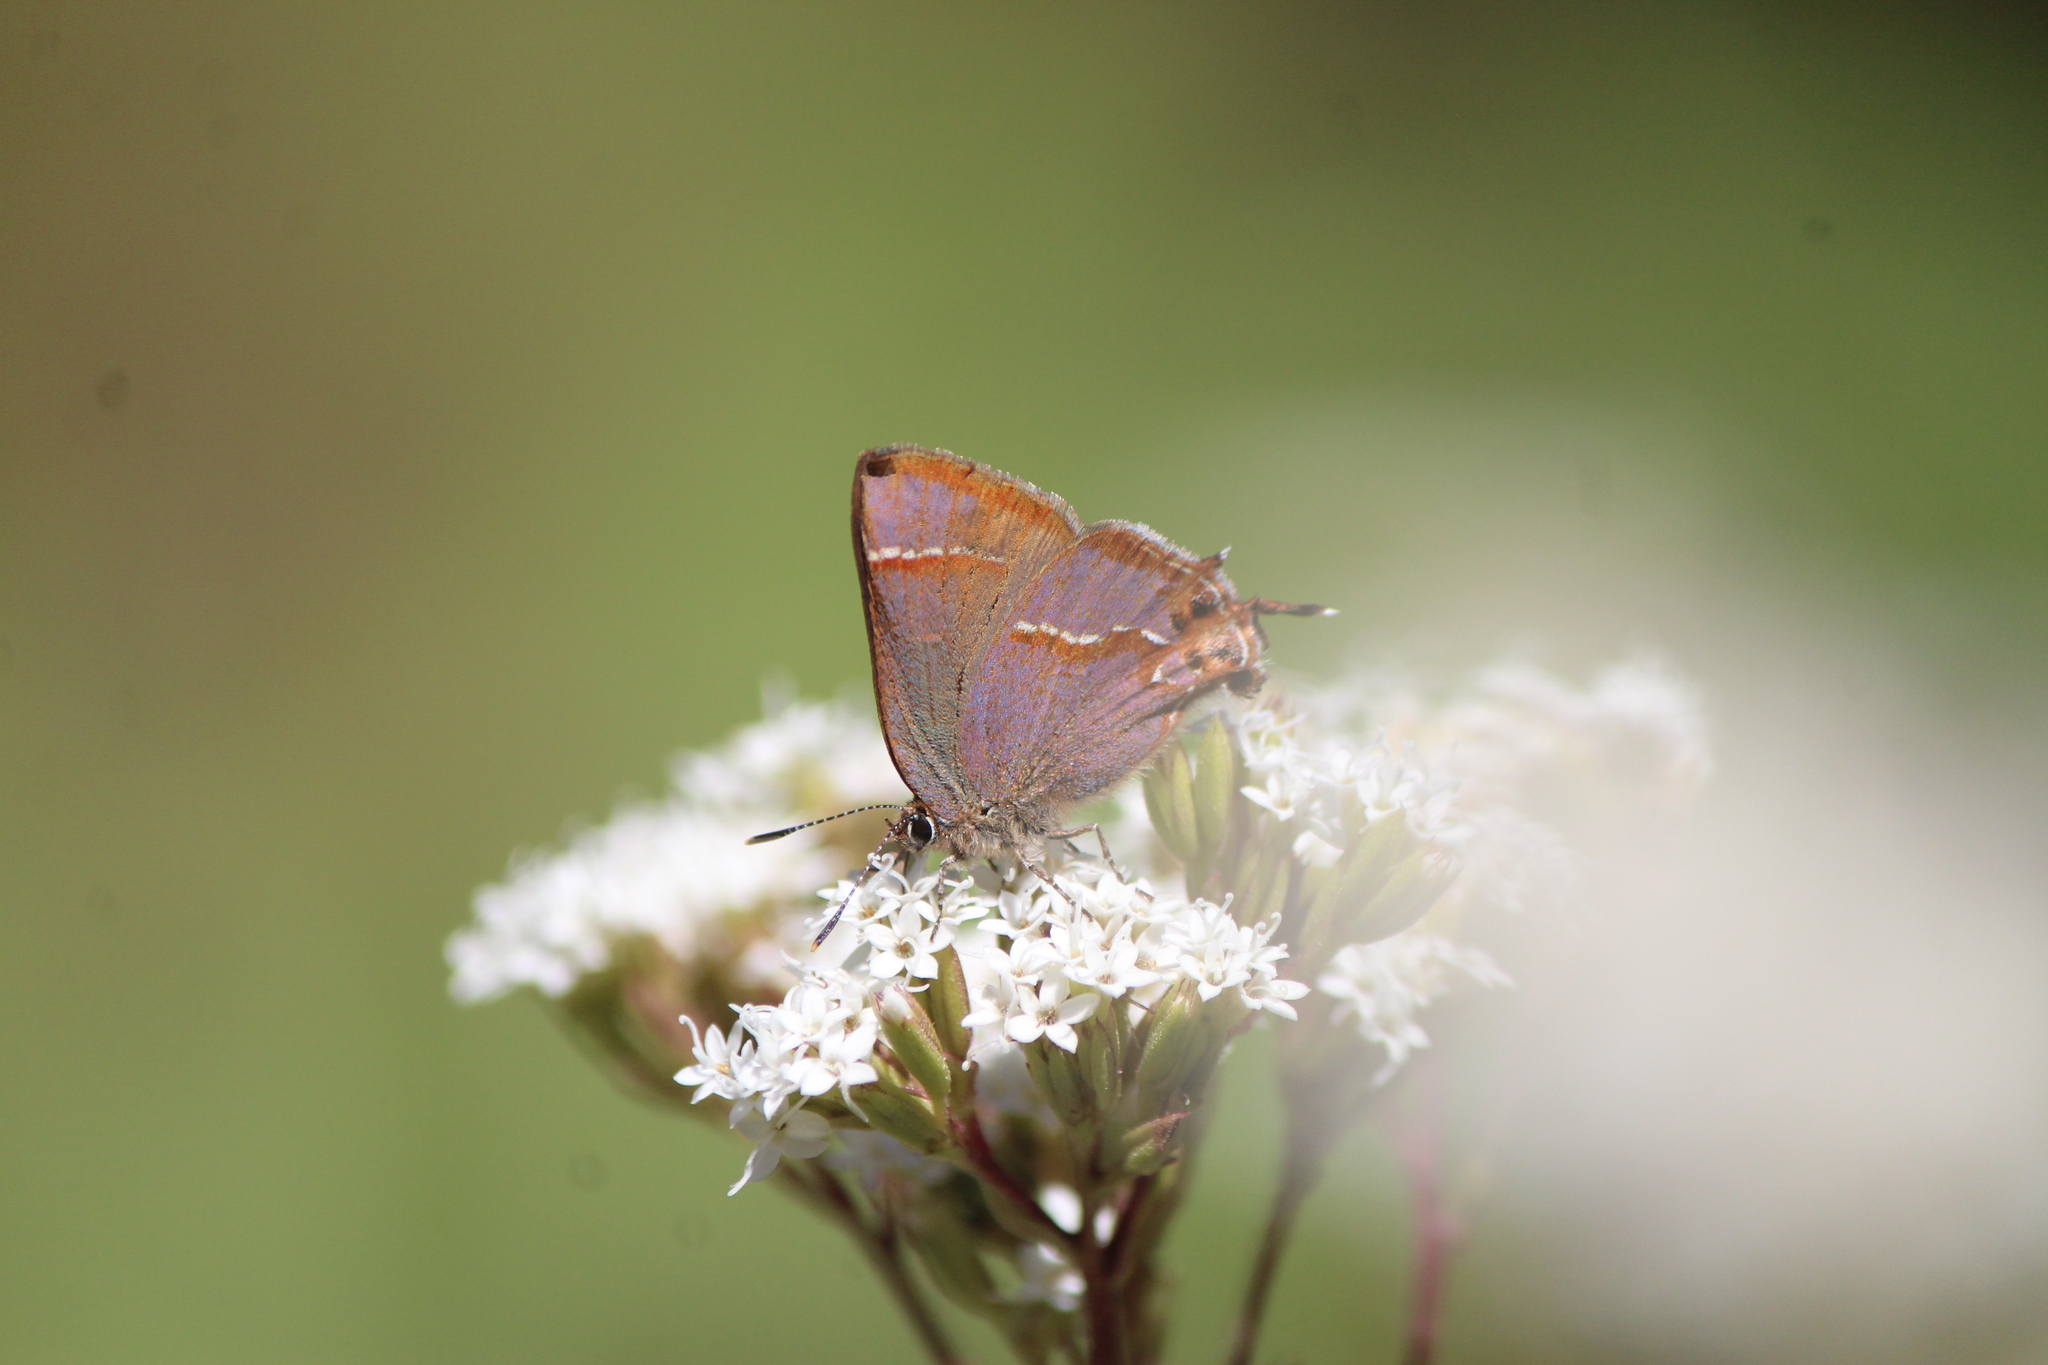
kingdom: Animalia
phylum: Arthropoda
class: Insecta
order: Lepidoptera
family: Lycaenidae
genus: Callophrys
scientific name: Callophrys
